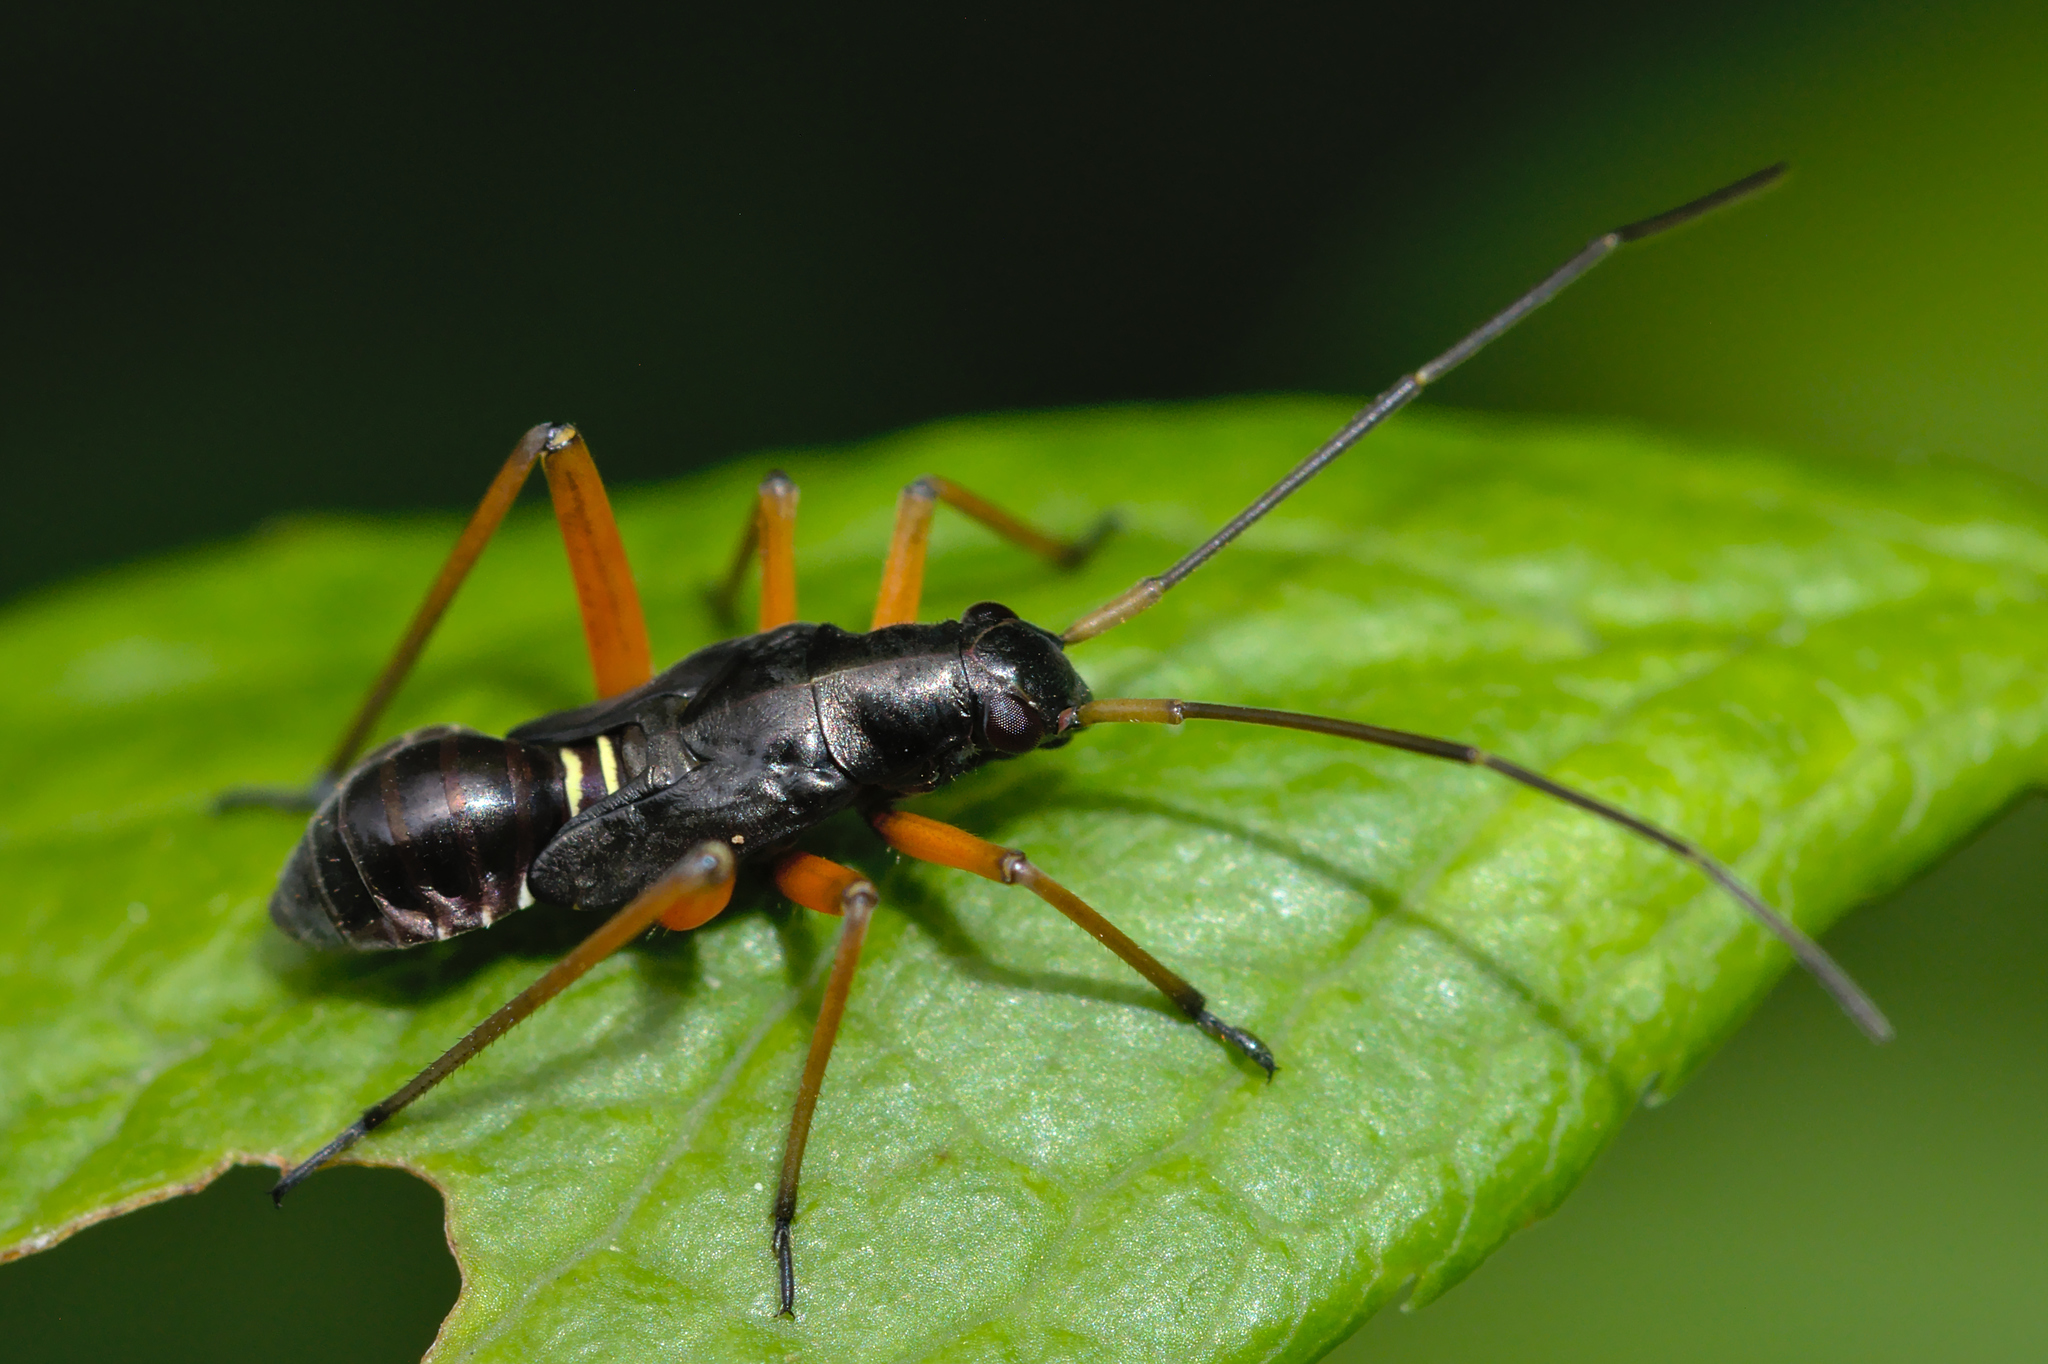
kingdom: Animalia
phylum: Arthropoda
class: Insecta
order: Hemiptera
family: Miridae
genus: Miris
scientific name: Miris striatus
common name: Fine streaked bugkin
